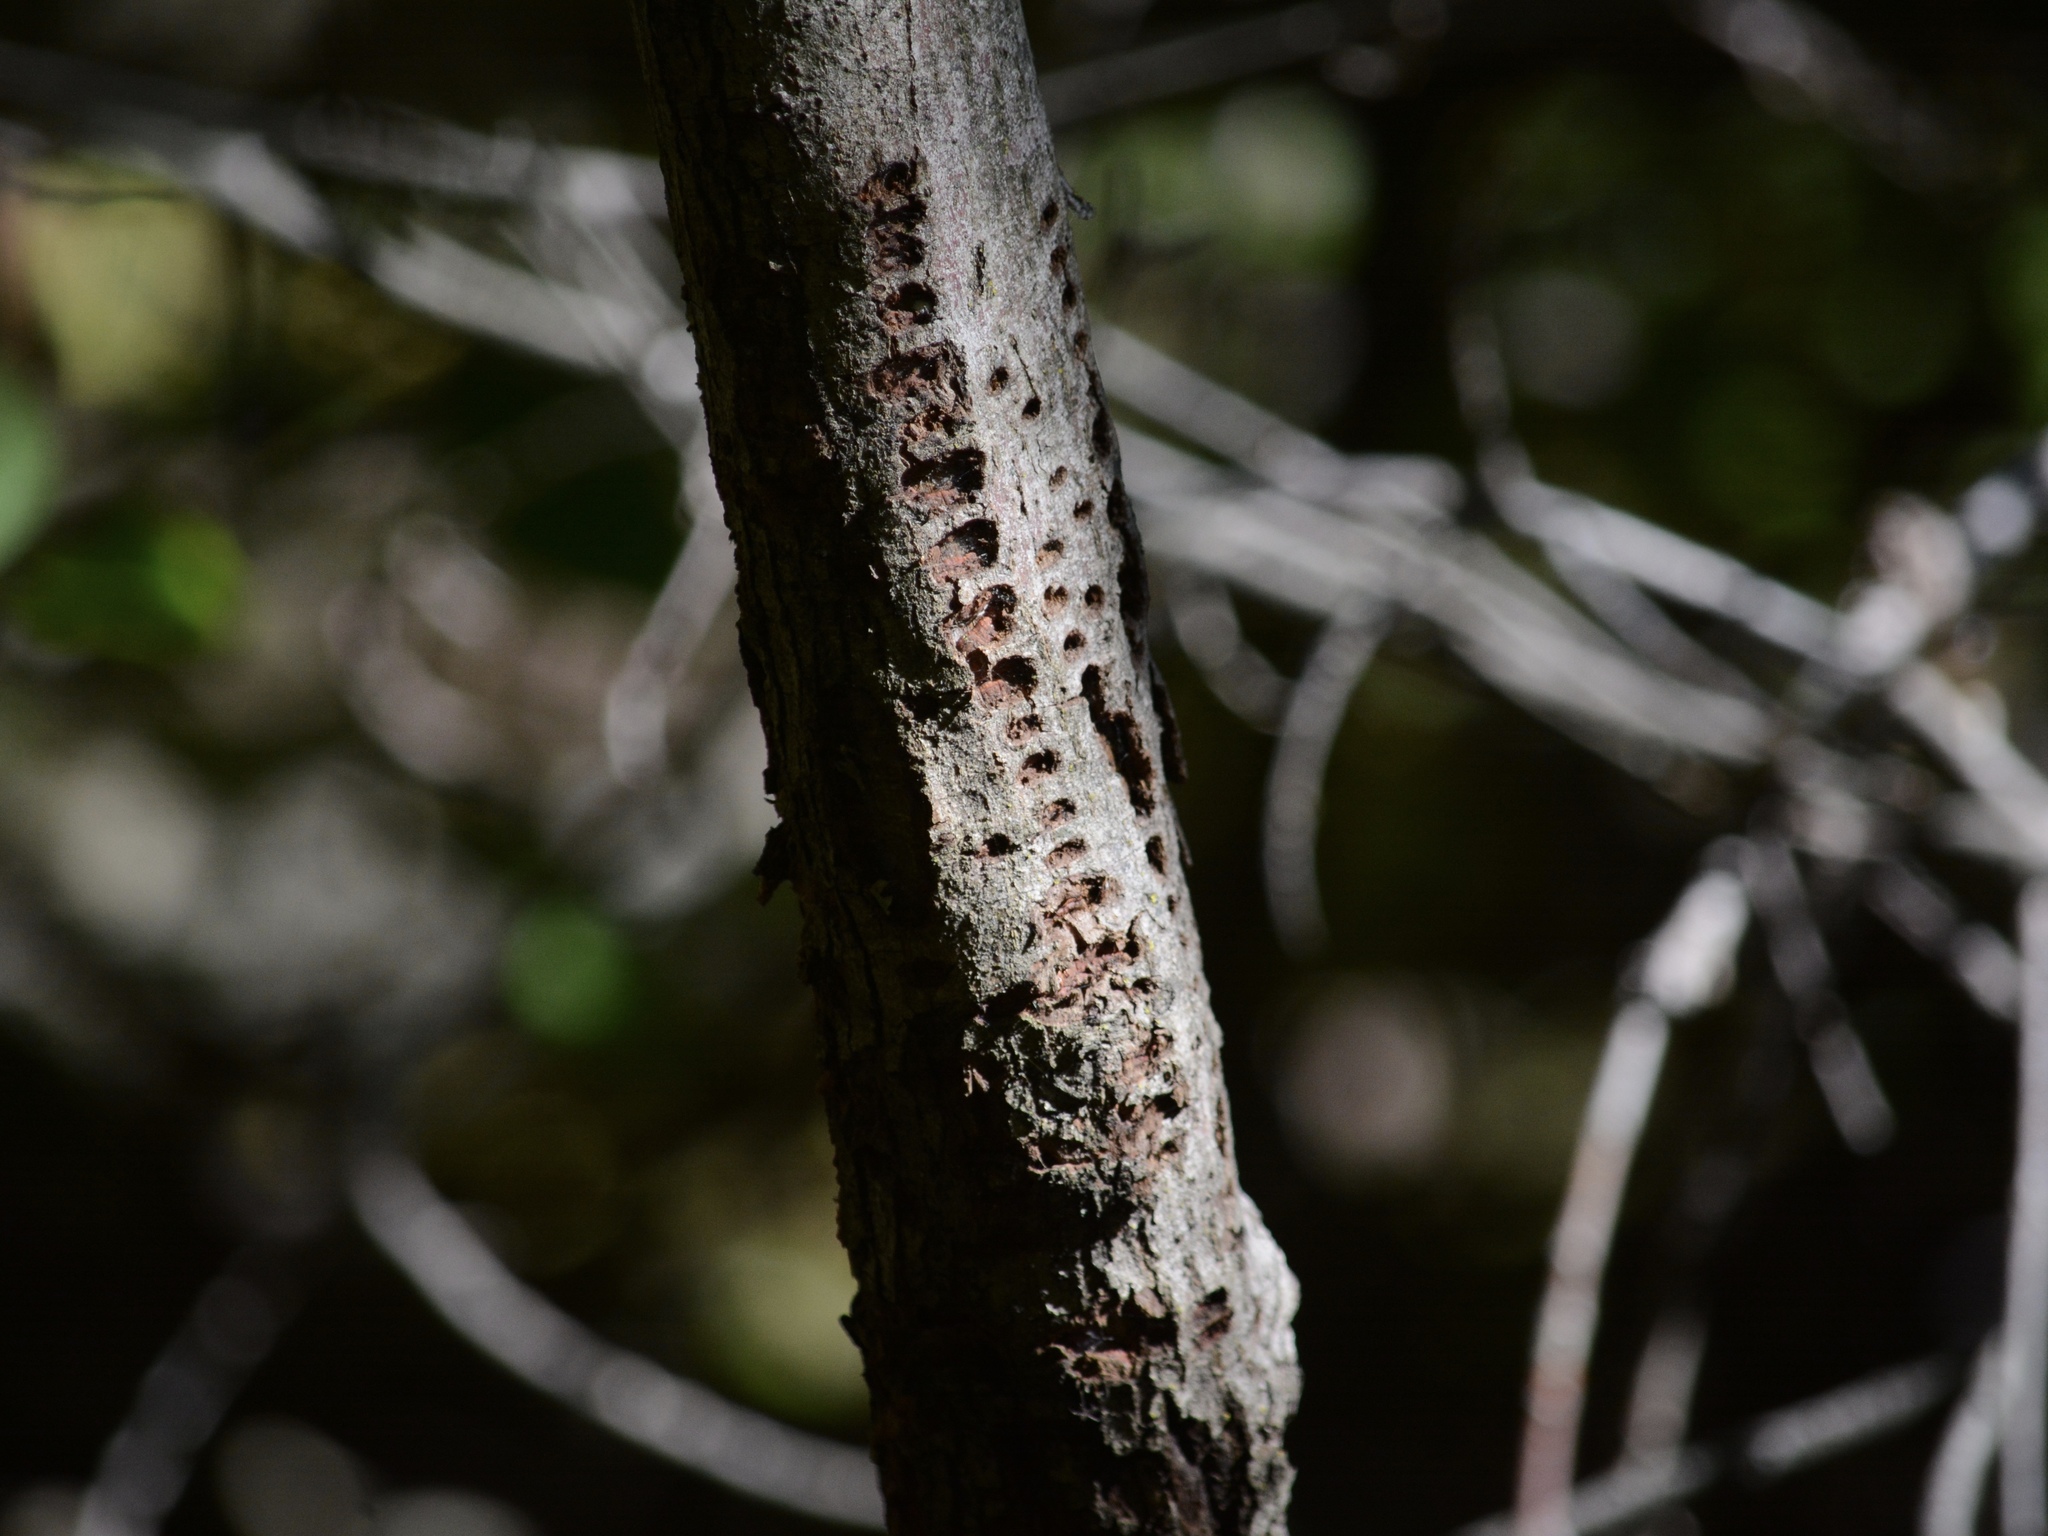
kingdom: Animalia
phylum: Chordata
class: Aves
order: Piciformes
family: Picidae
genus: Sphyrapicus
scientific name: Sphyrapicus varius
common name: Yellow-bellied sapsucker
